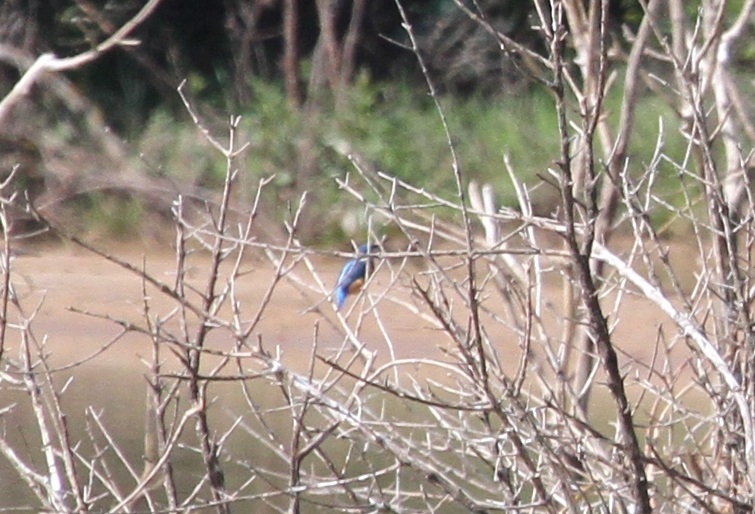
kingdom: Animalia
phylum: Chordata
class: Aves
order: Coraciiformes
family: Alcedinidae
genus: Alcedo
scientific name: Alcedo atthis
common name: Common kingfisher
